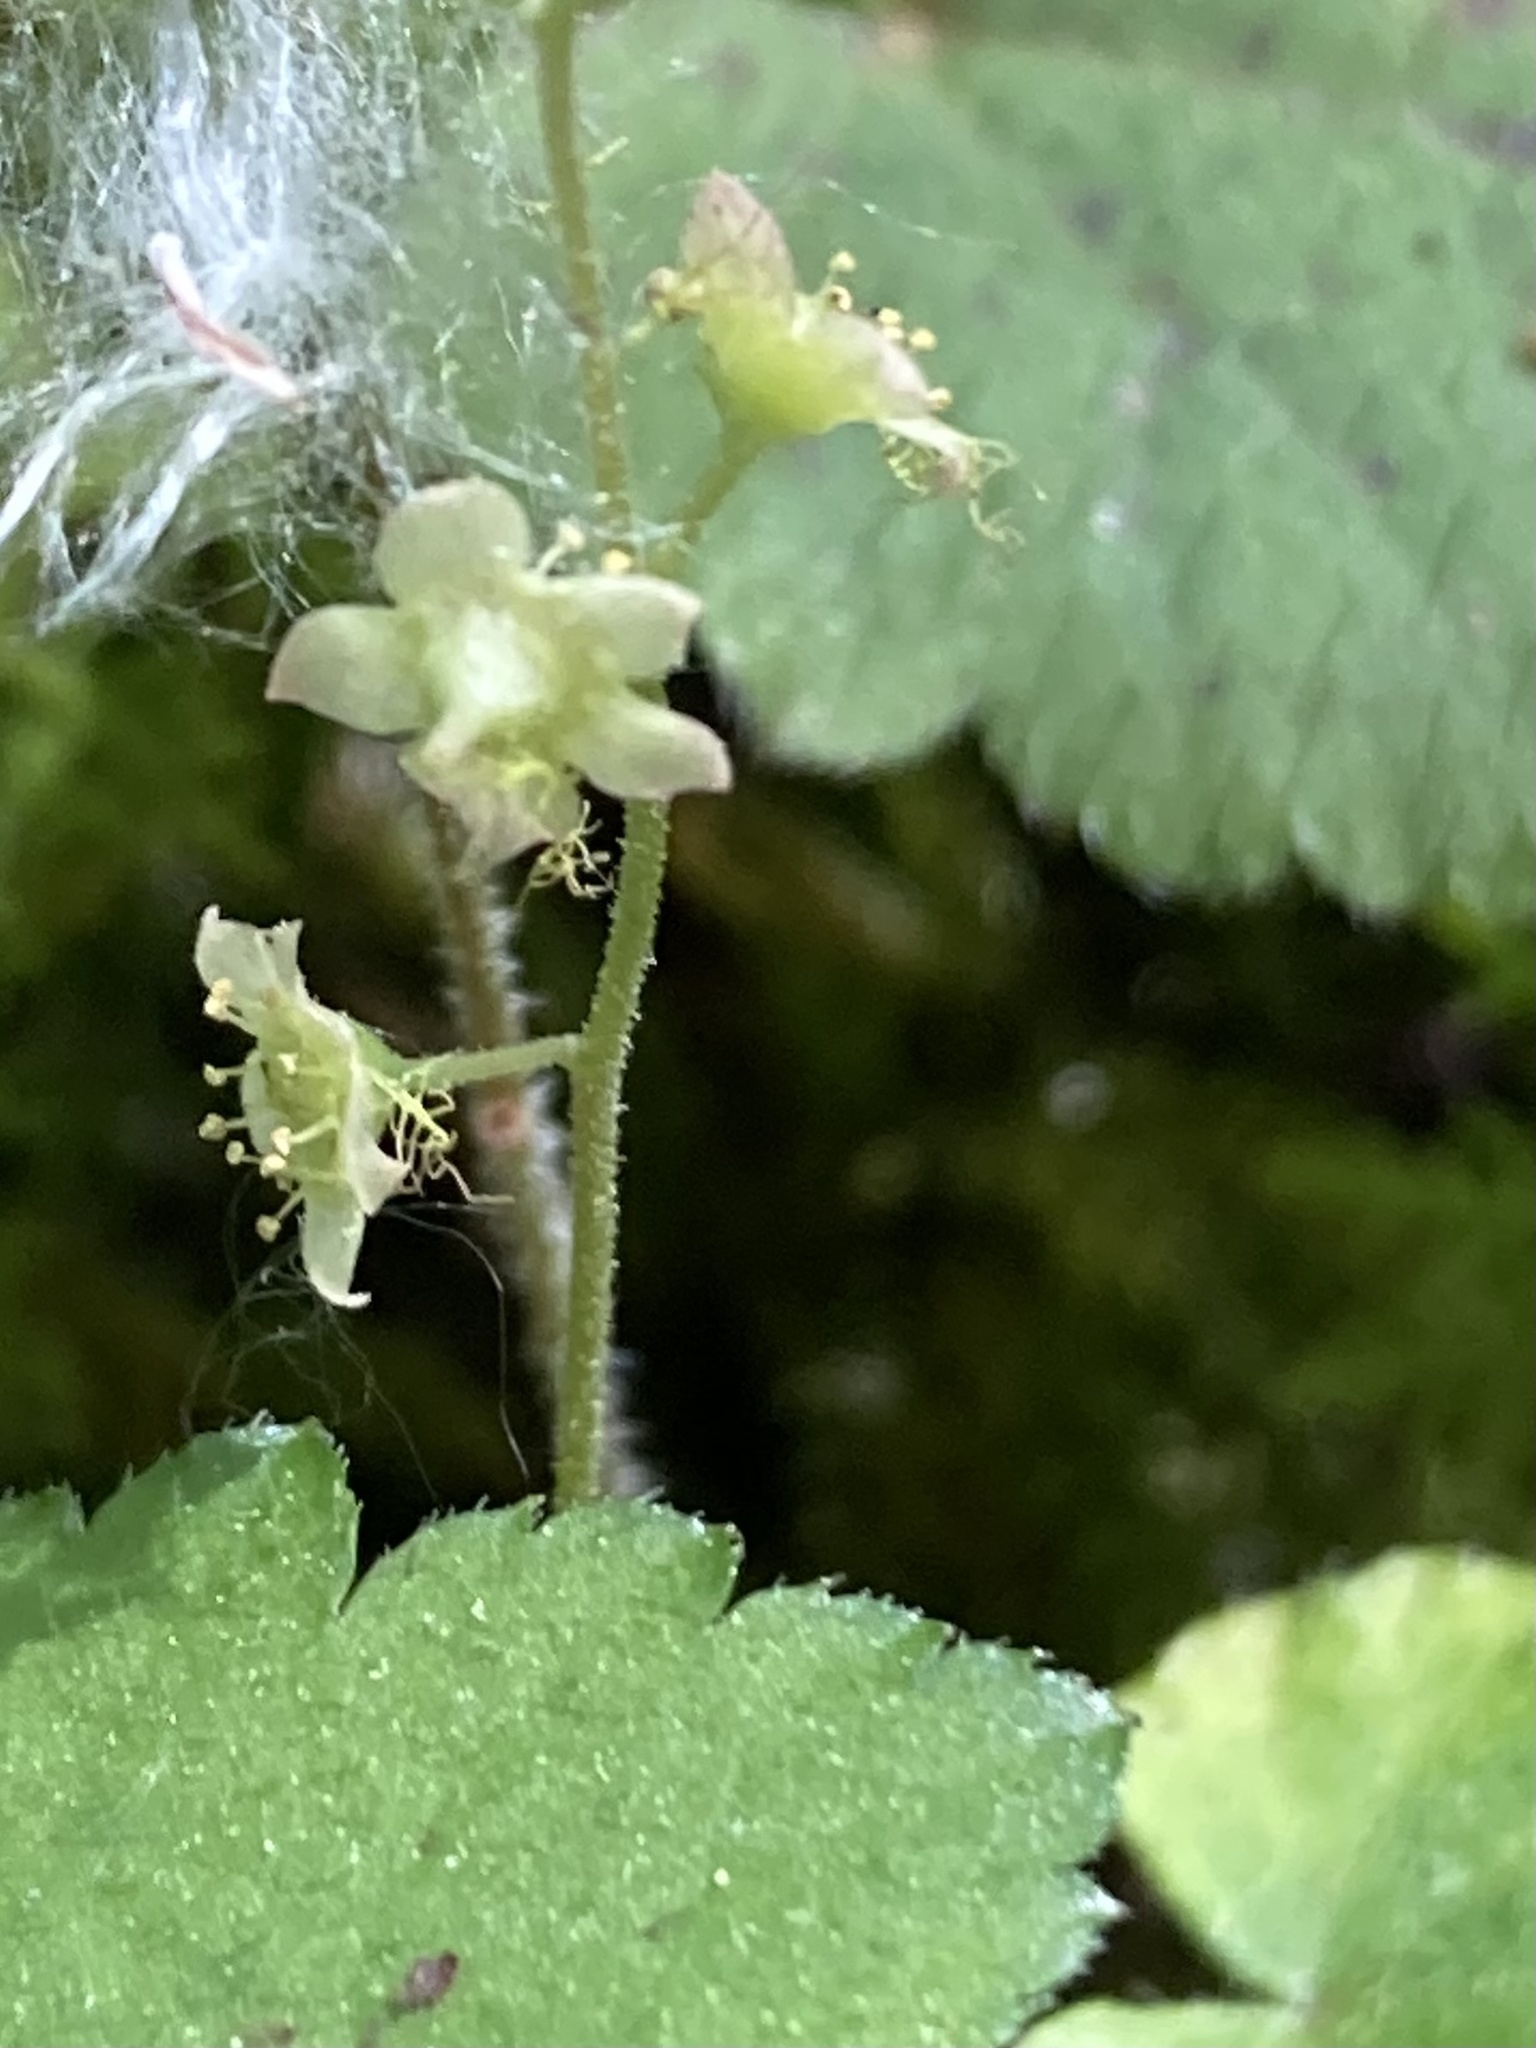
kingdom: Plantae
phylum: Tracheophyta
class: Magnoliopsida
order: Saxifragales
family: Saxifragaceae
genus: Mitella
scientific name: Mitella nuda
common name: Bare-stemmed bishop's-cap
